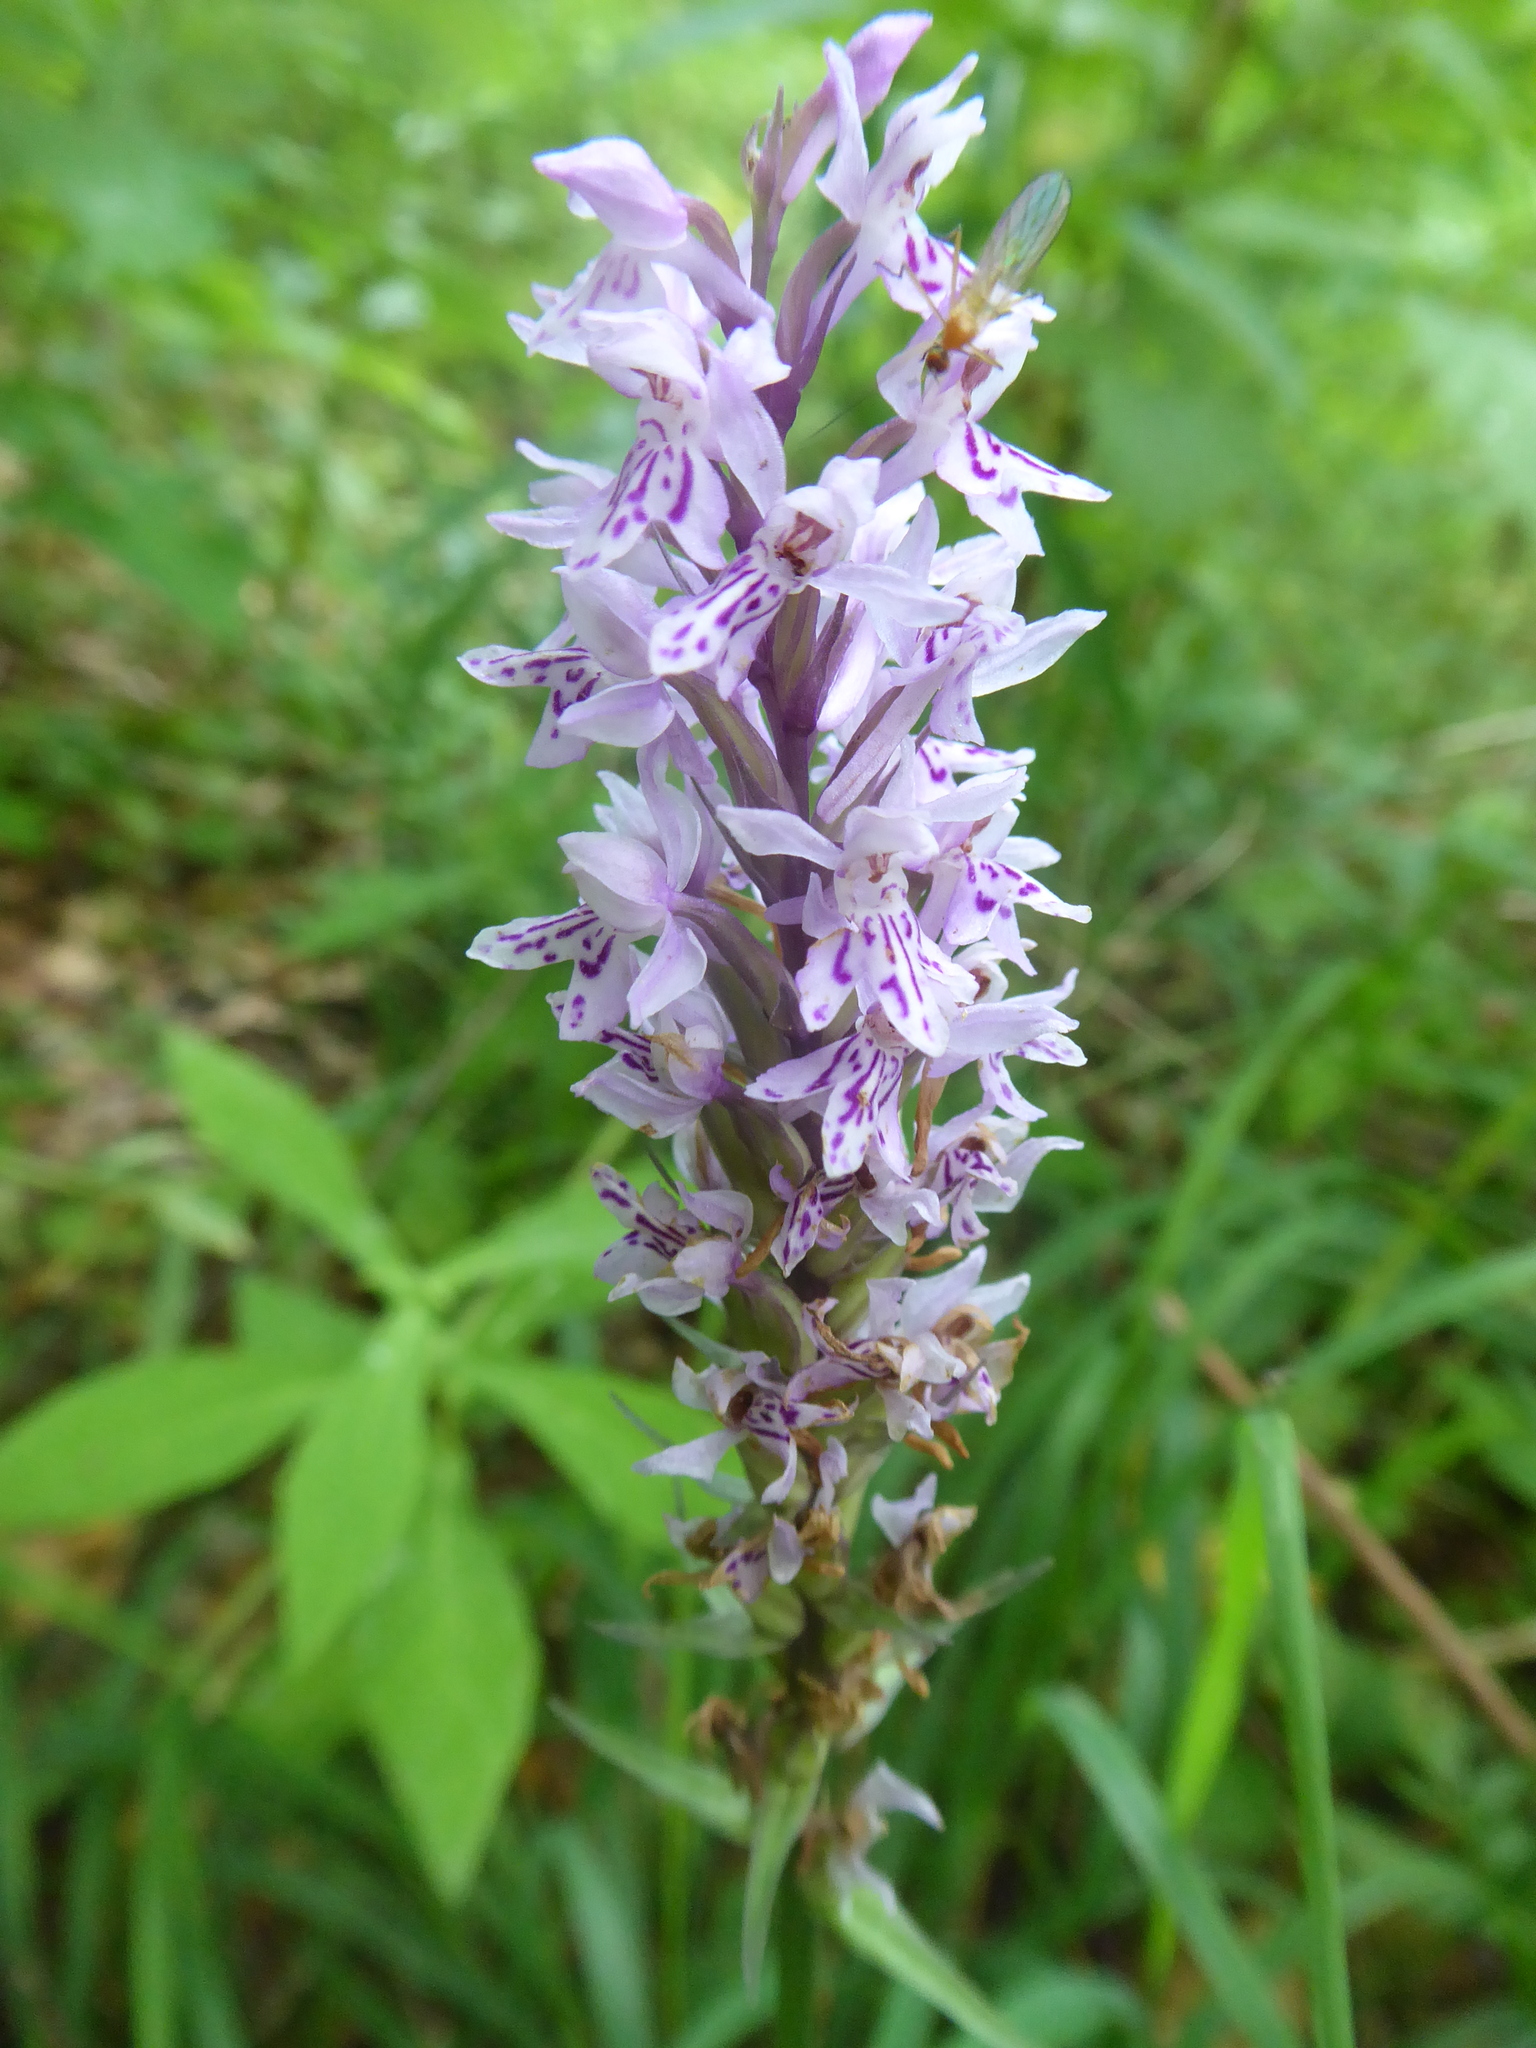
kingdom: Plantae
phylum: Tracheophyta
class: Liliopsida
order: Asparagales
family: Orchidaceae
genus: Dactylorhiza
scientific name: Dactylorhiza maculata
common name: Heath spotted-orchid
